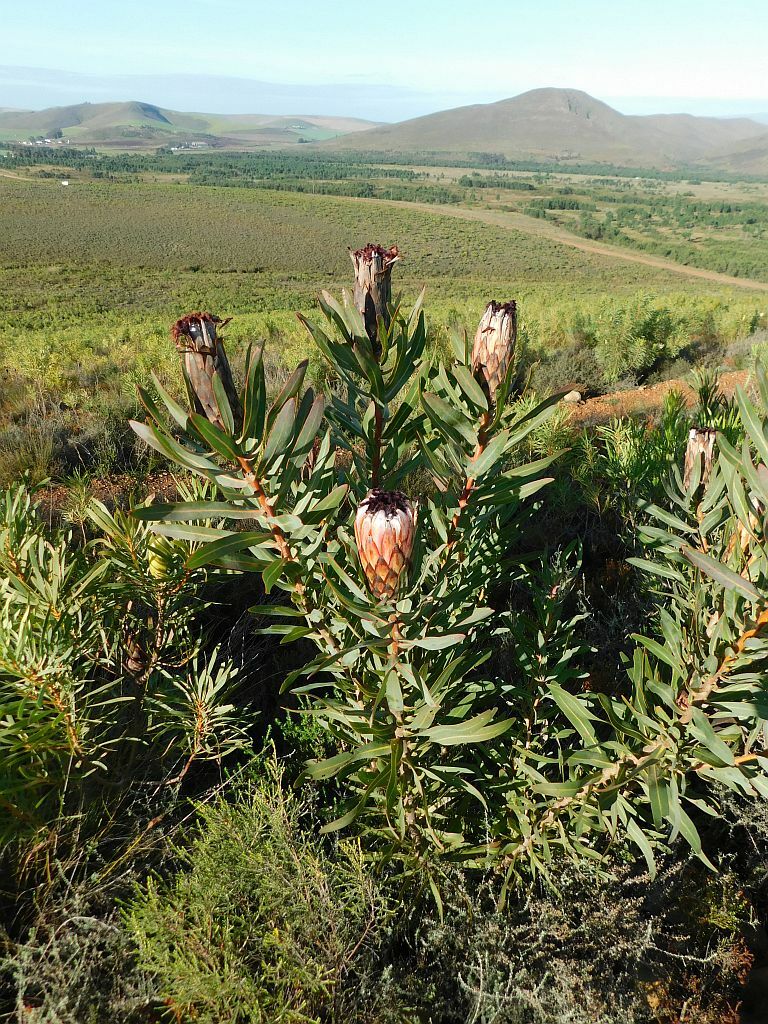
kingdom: Plantae
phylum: Tracheophyta
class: Magnoliopsida
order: Proteales
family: Proteaceae
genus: Protea
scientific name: Protea neriifolia
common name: Blue sugarbush
